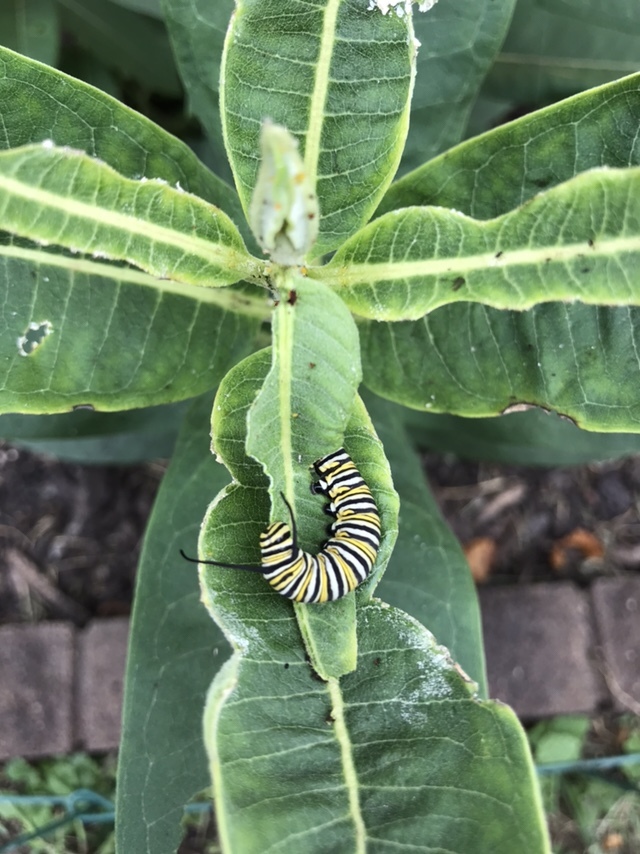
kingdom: Animalia
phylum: Arthropoda
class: Insecta
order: Lepidoptera
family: Nymphalidae
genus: Danaus
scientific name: Danaus plexippus
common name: Monarch
